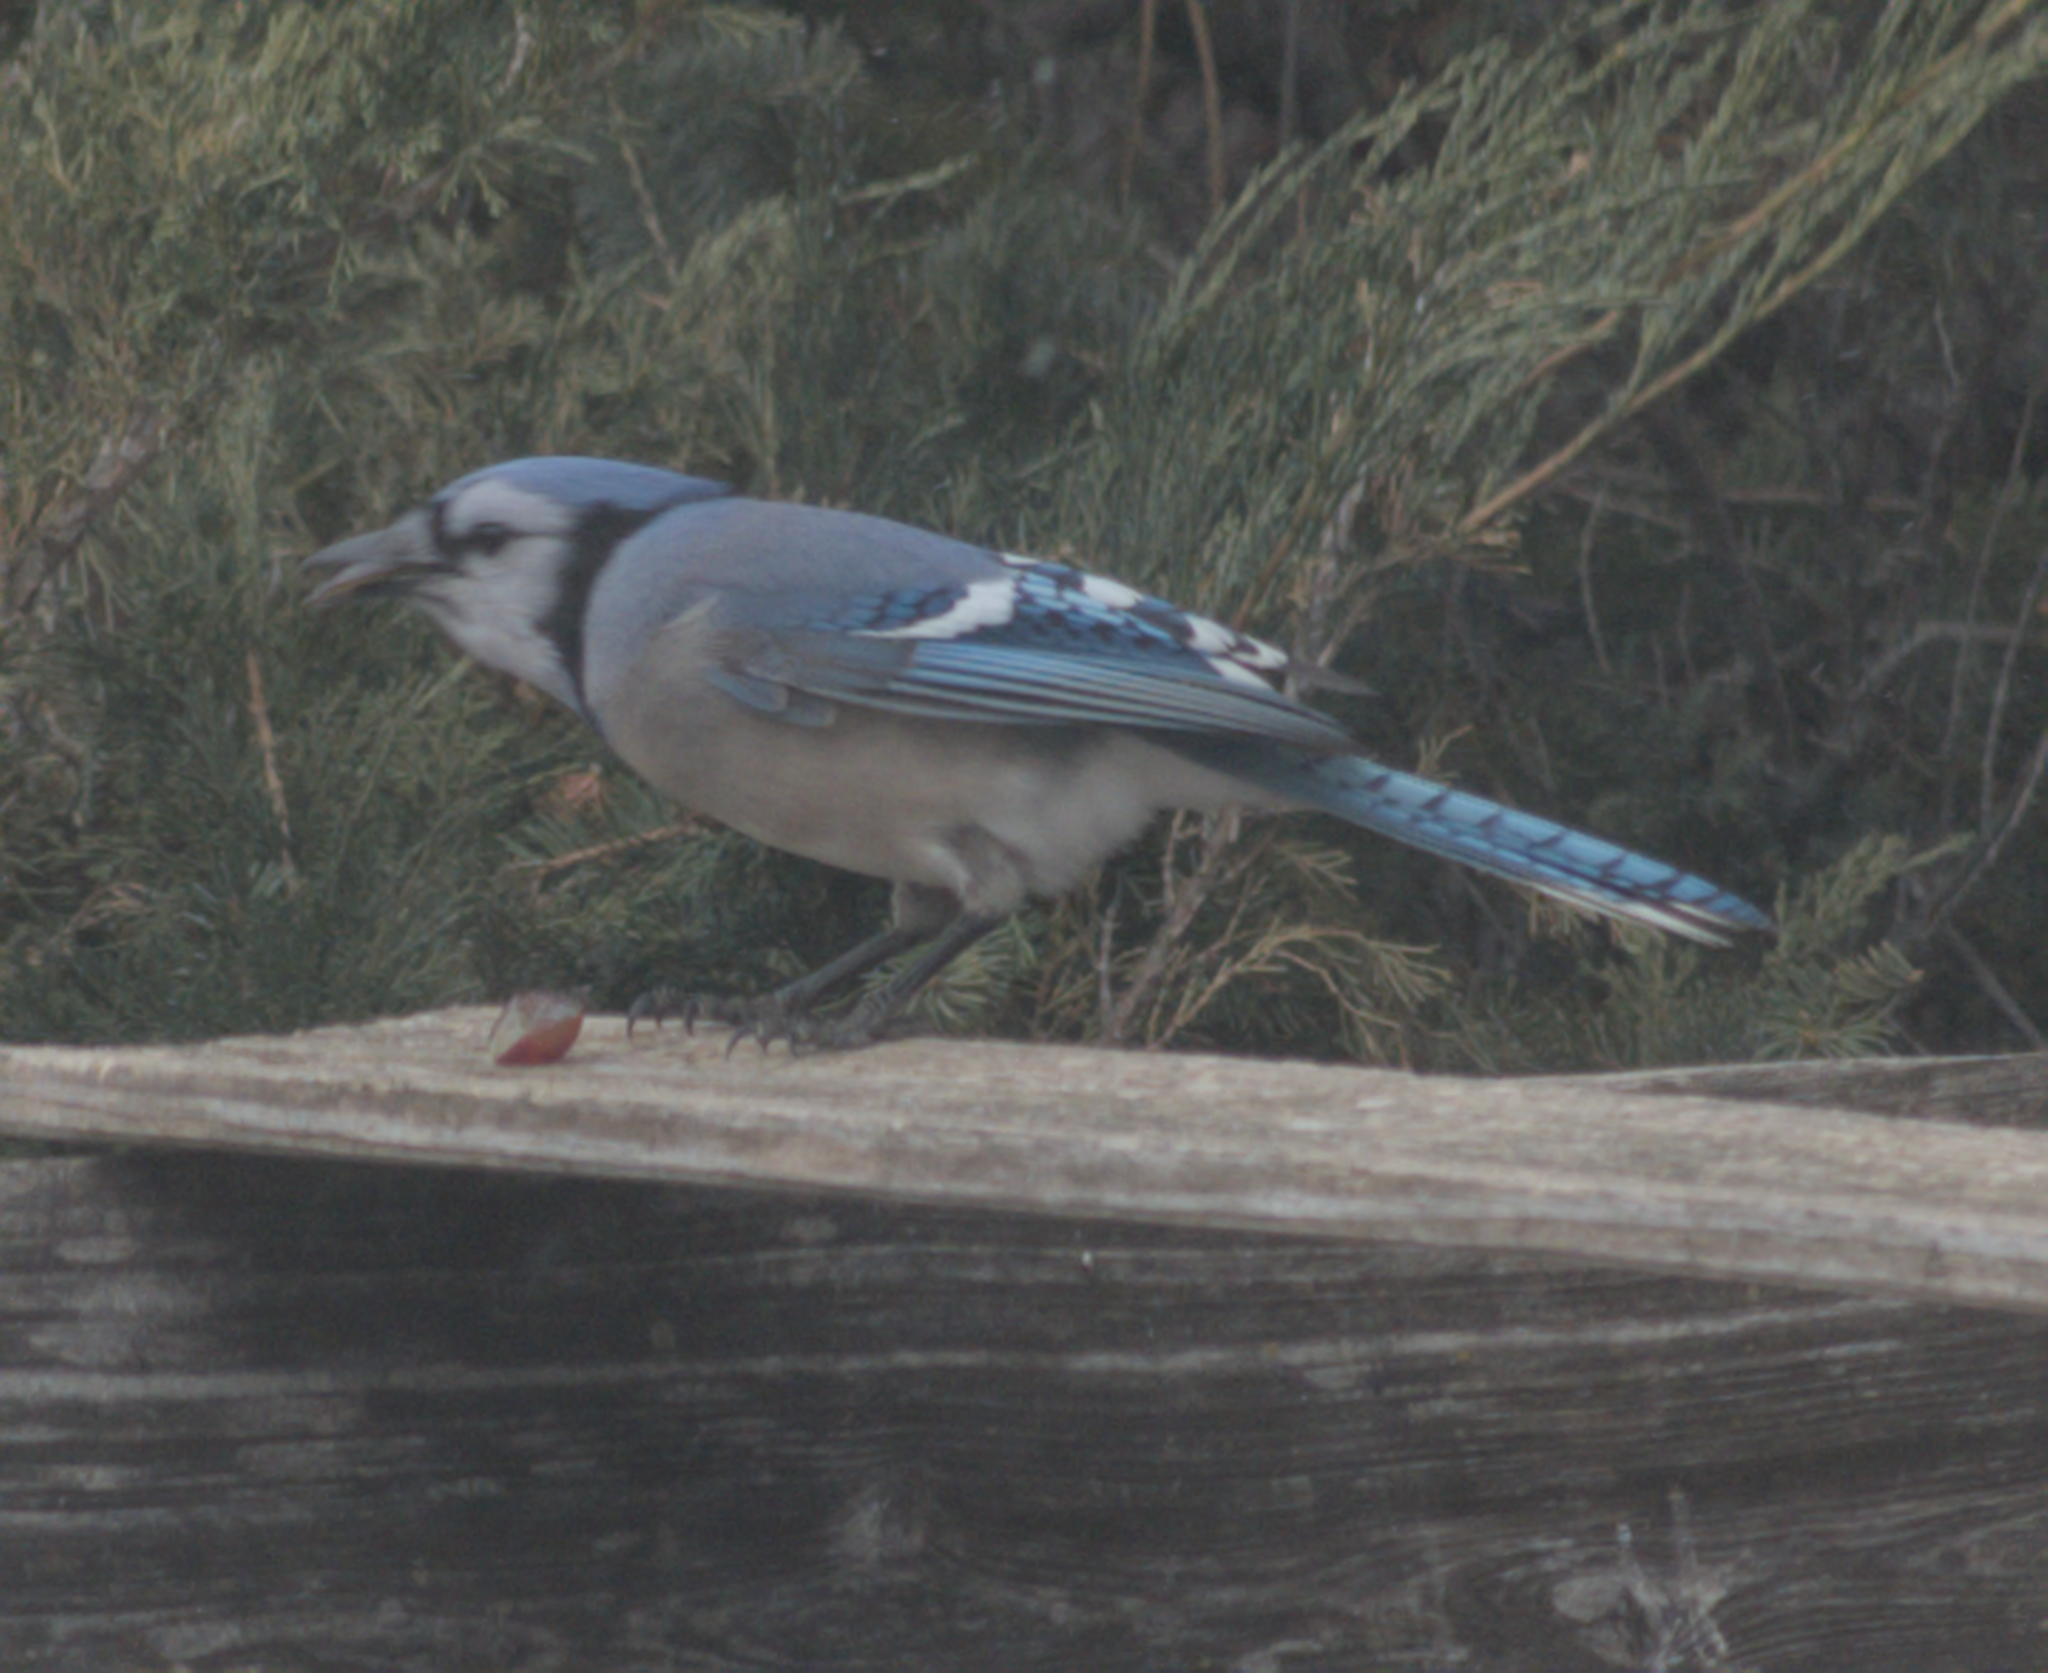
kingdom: Animalia
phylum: Chordata
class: Aves
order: Passeriformes
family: Corvidae
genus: Cyanocitta
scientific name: Cyanocitta cristata
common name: Blue jay
